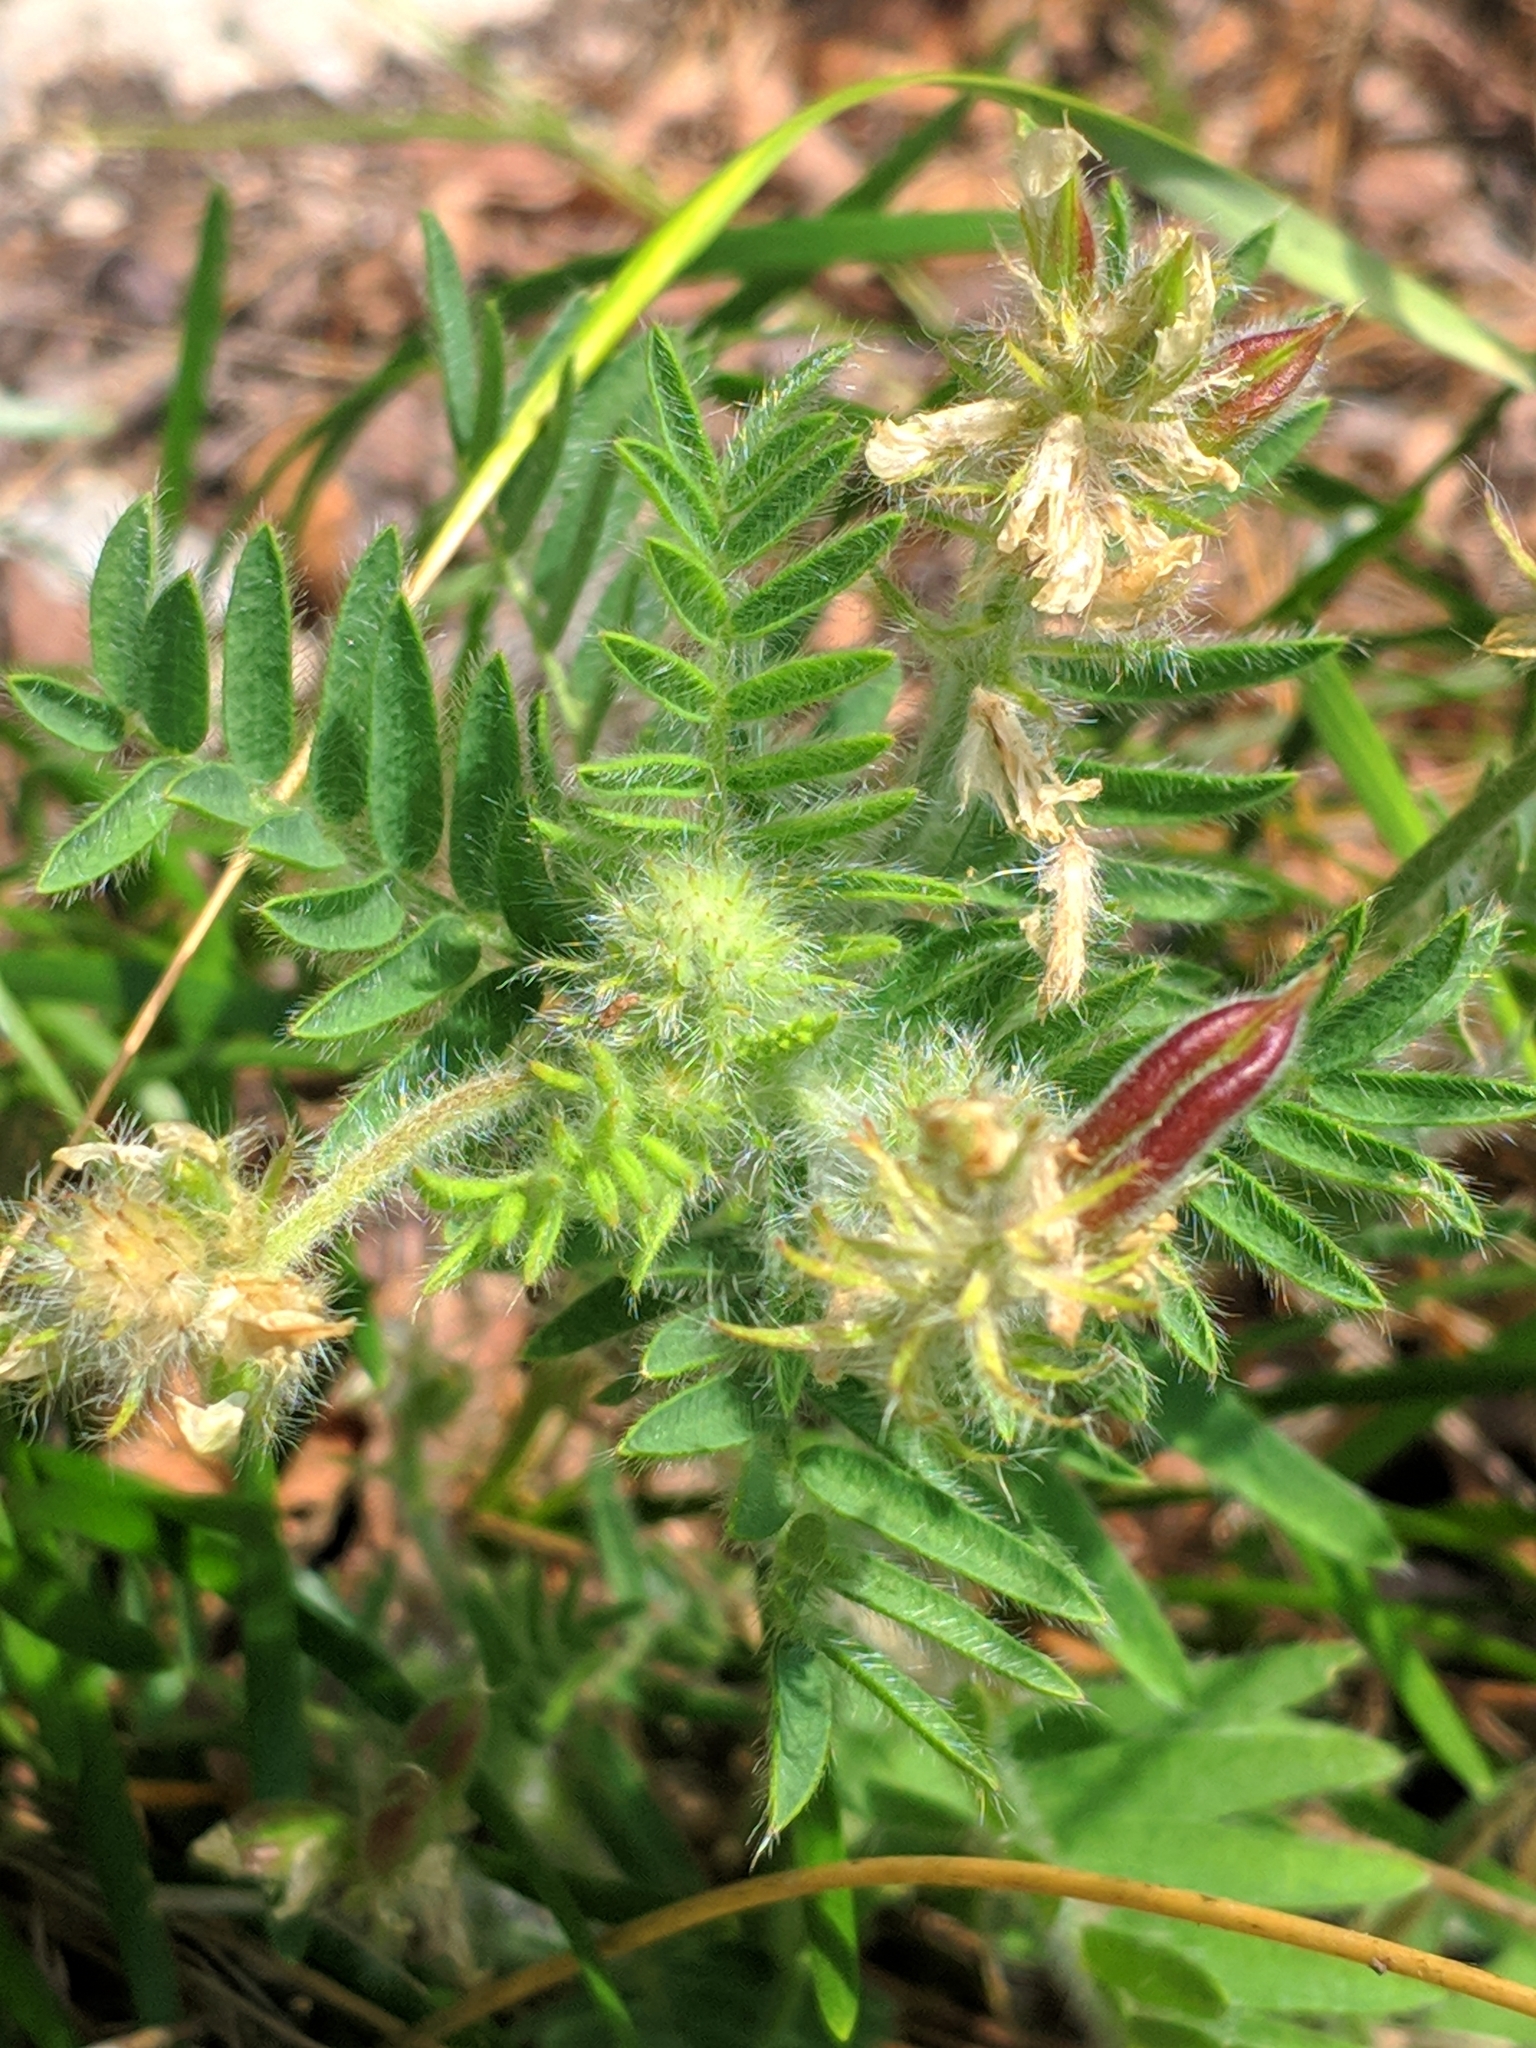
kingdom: Plantae
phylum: Tracheophyta
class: Magnoliopsida
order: Fabales
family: Fabaceae
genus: Oxytropis
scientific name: Oxytropis pilosa
